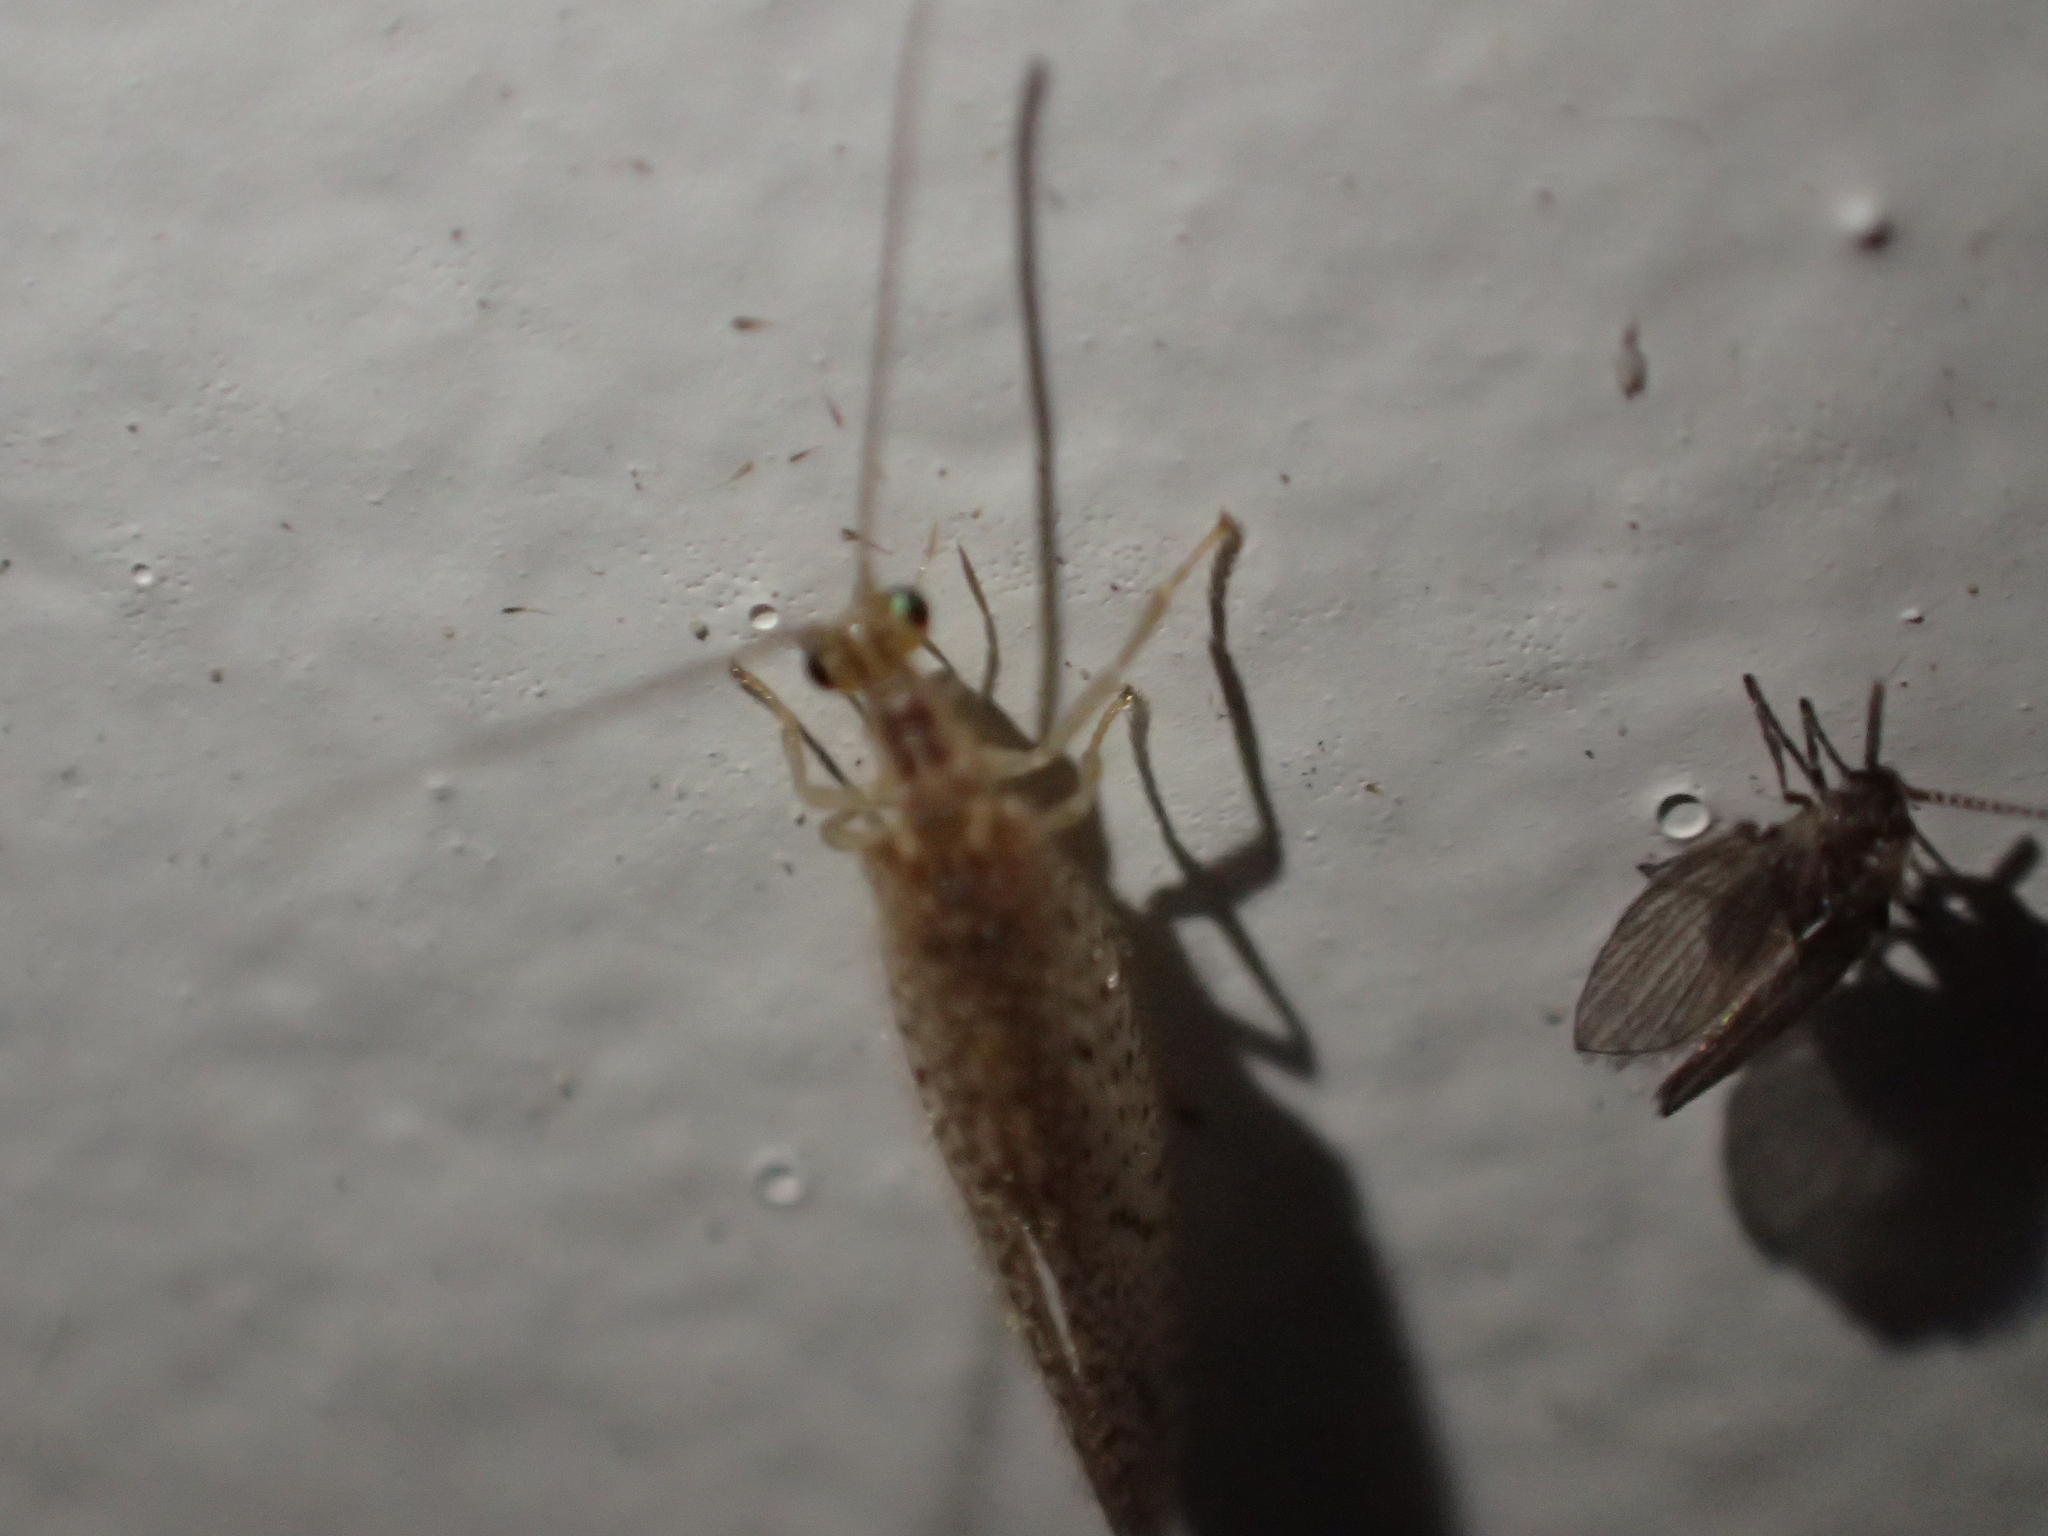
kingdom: Animalia
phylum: Arthropoda
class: Insecta
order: Neuroptera
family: Hemerobiidae
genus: Micromus
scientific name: Micromus tasmaniae
